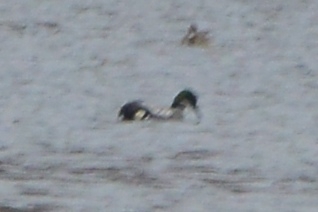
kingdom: Animalia
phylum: Chordata
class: Aves
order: Anseriformes
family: Anatidae
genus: Mareca
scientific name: Mareca falcata
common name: Falcated duck
